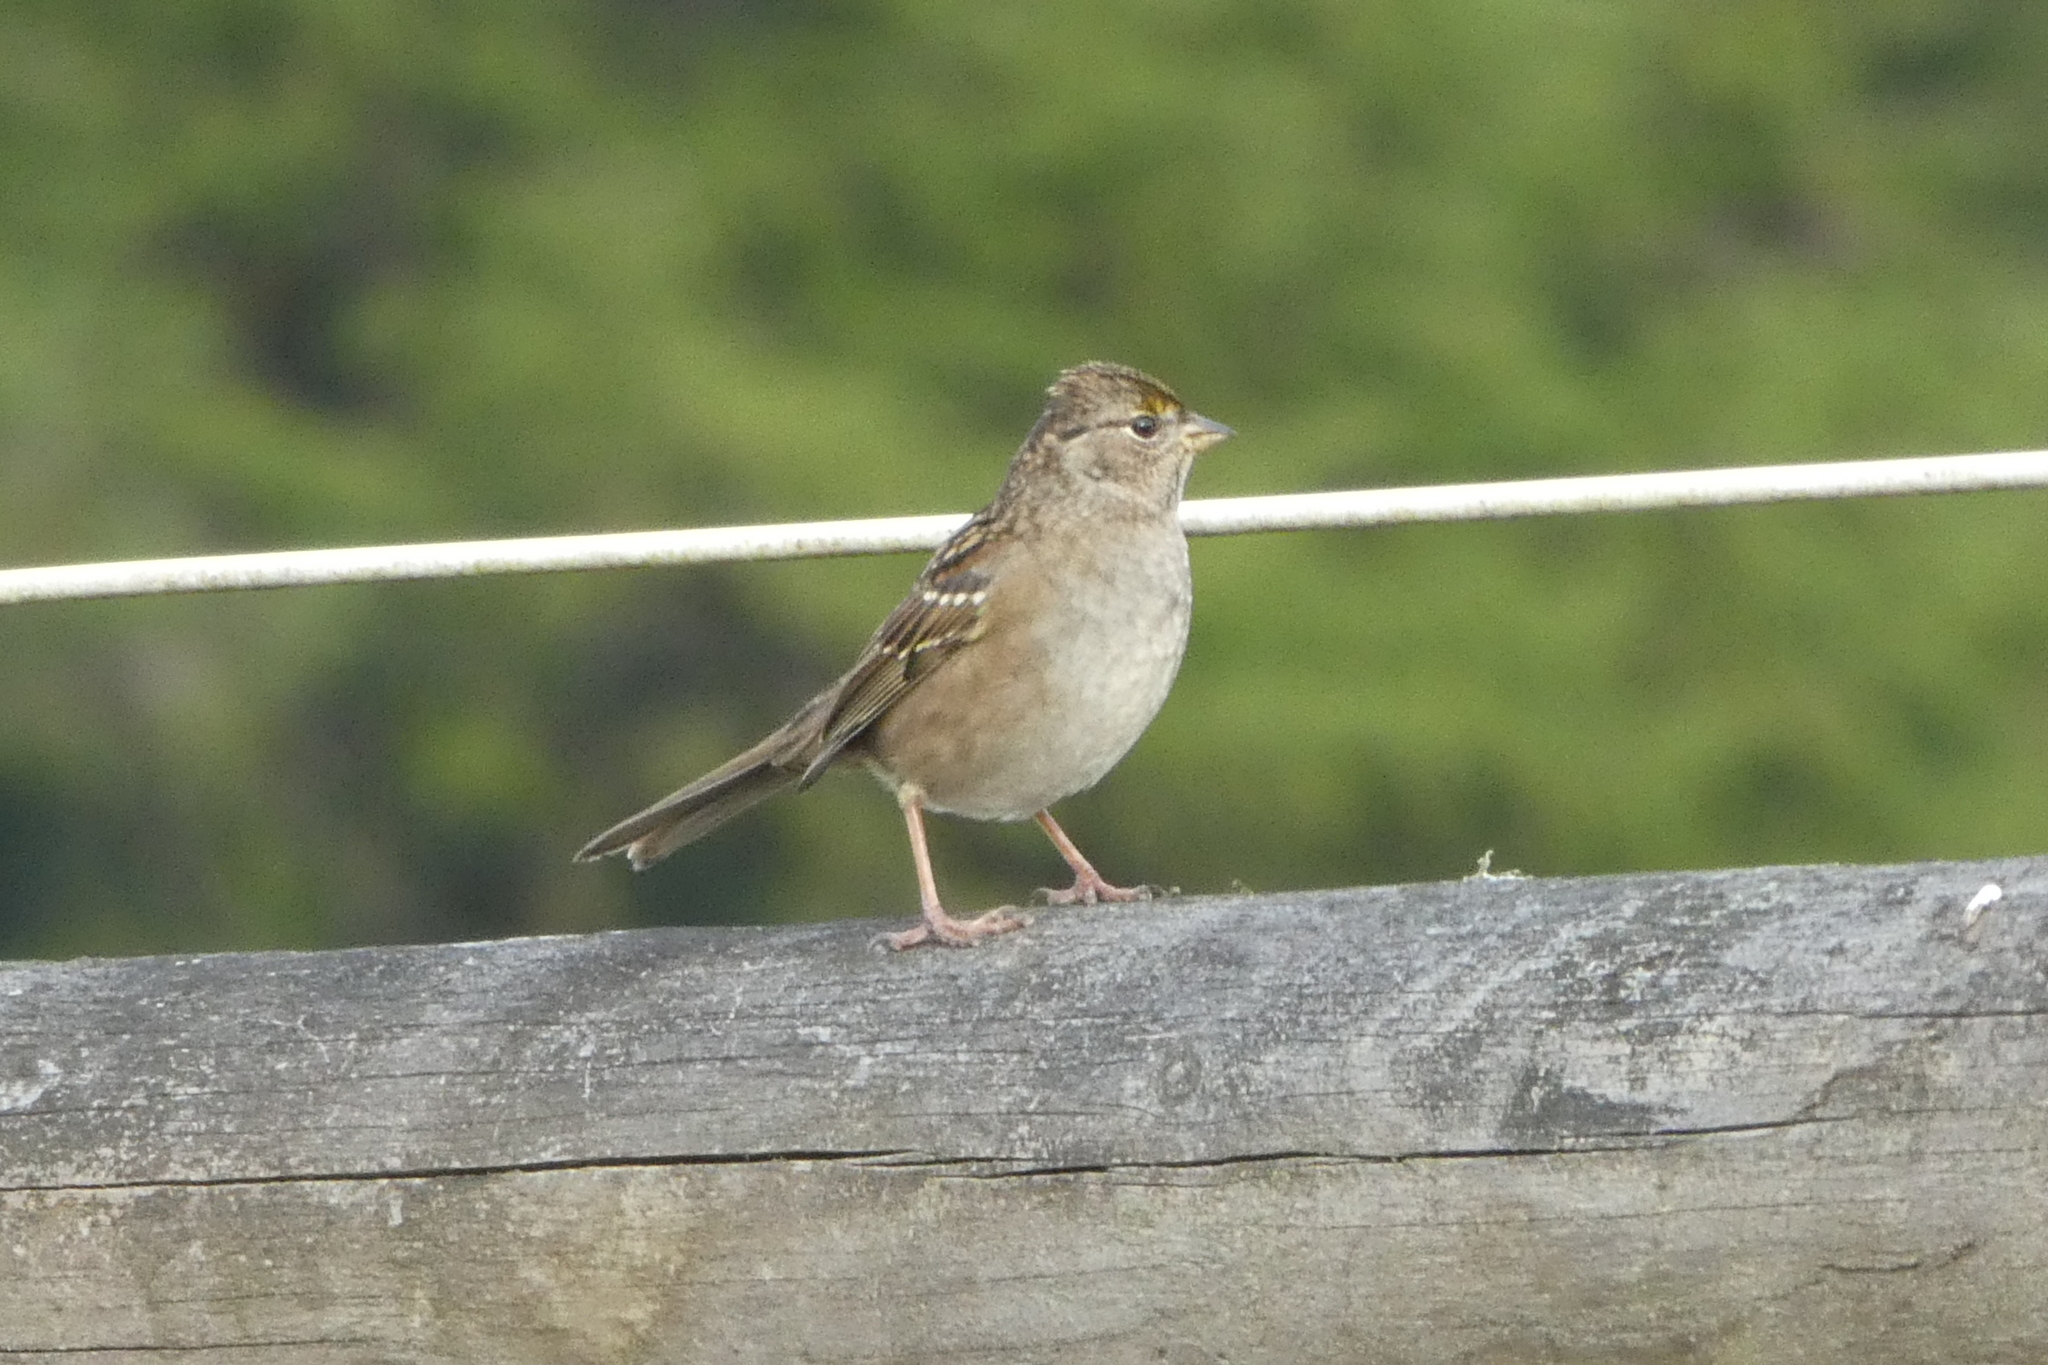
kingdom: Animalia
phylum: Chordata
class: Aves
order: Passeriformes
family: Passerellidae
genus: Zonotrichia
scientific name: Zonotrichia atricapilla
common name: Golden-crowned sparrow
